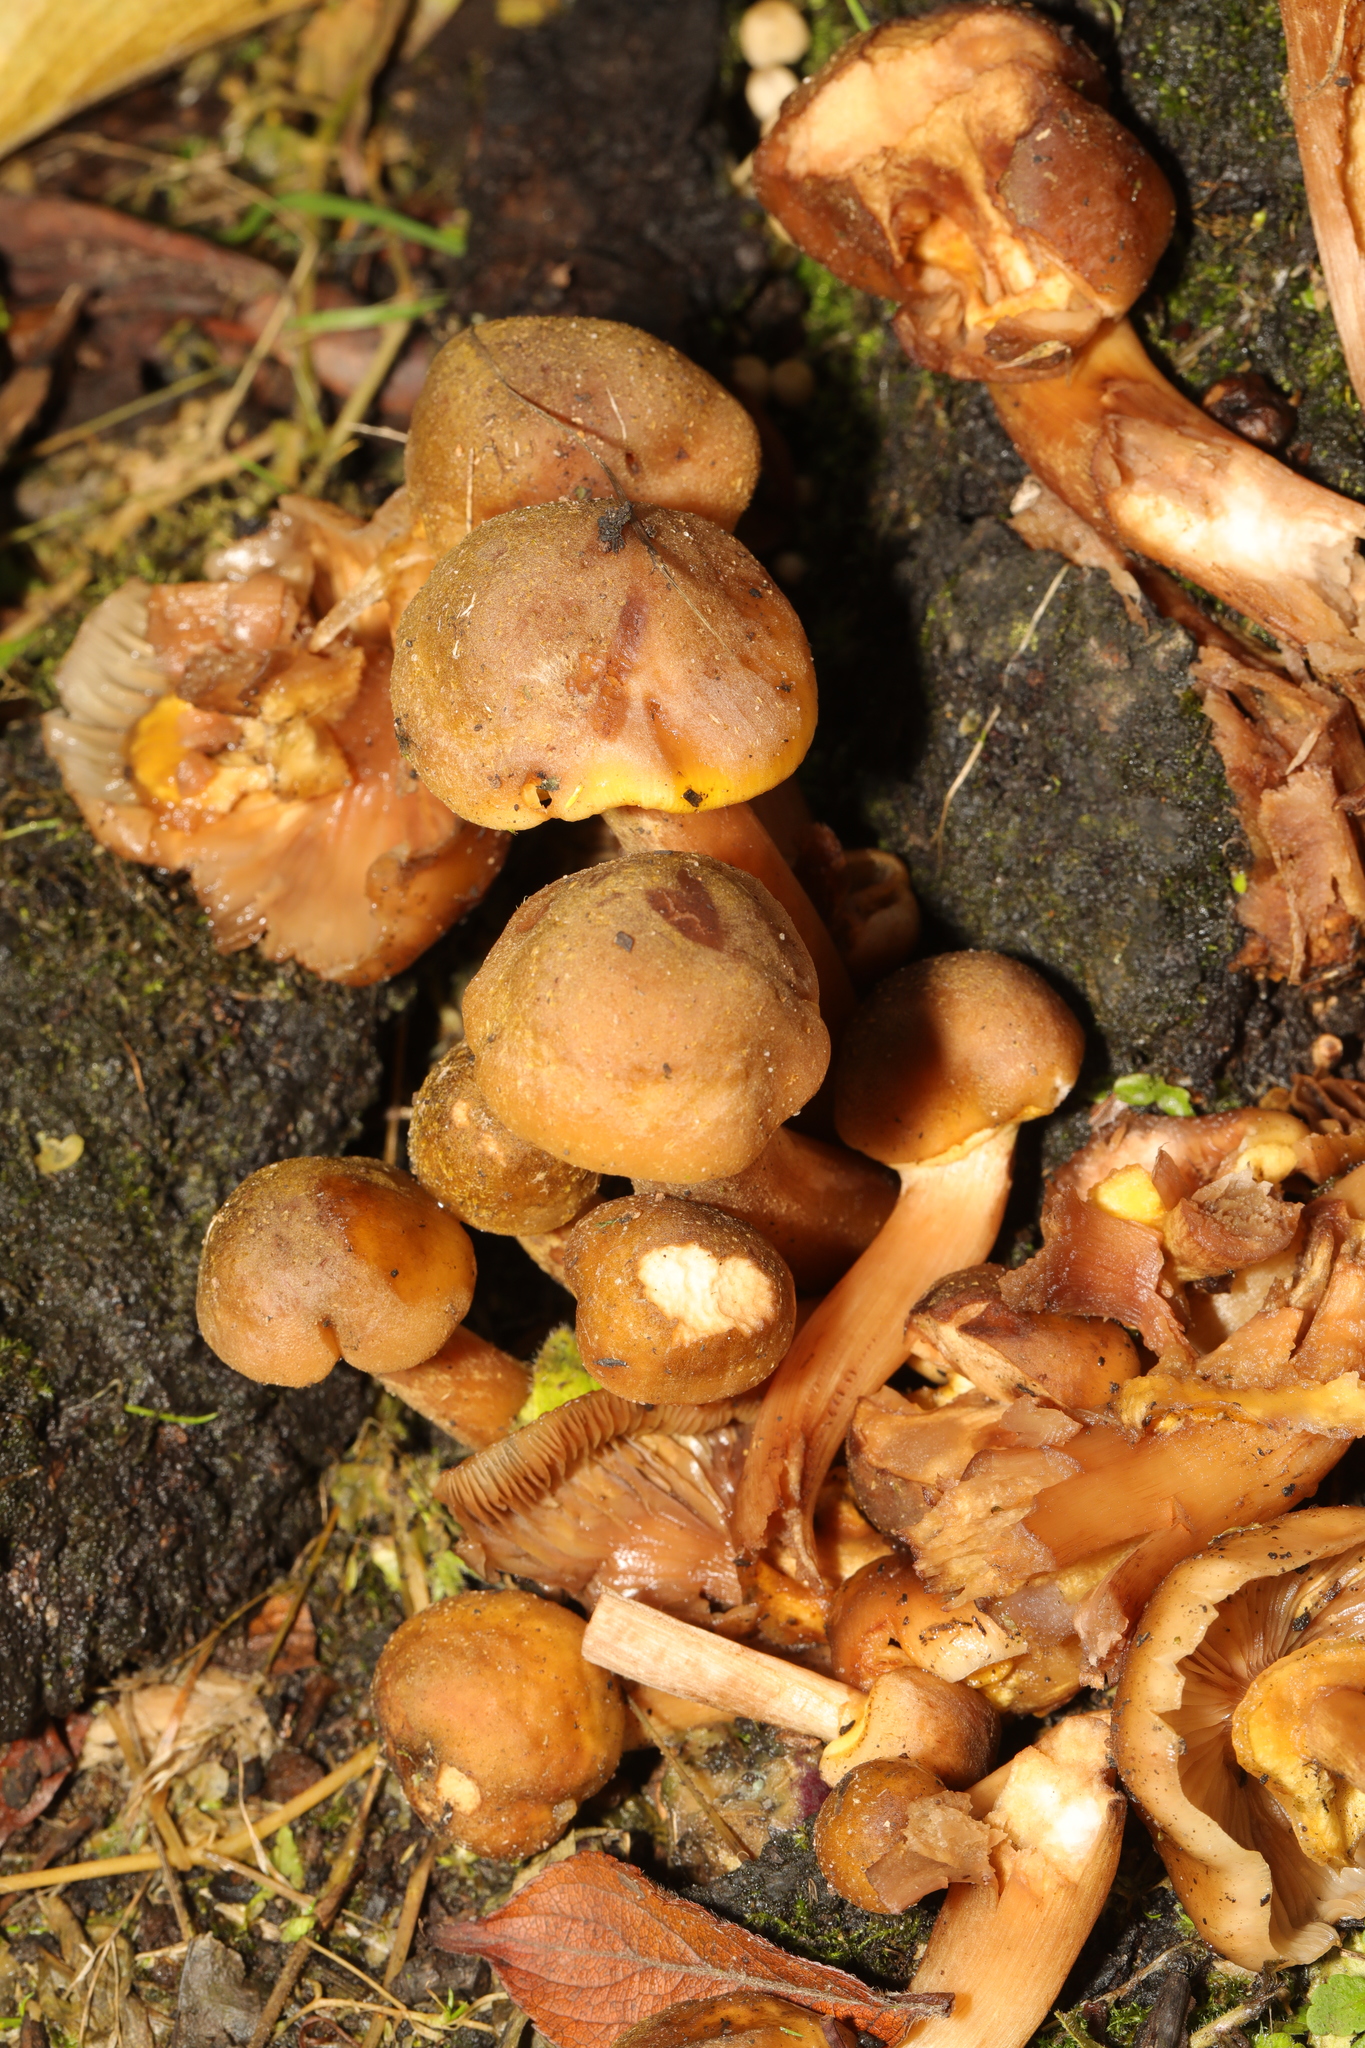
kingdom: Fungi
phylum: Basidiomycota
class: Agaricomycetes
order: Agaricales
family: Physalacriaceae
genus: Armillaria
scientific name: Armillaria mellea
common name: Honey fungus
